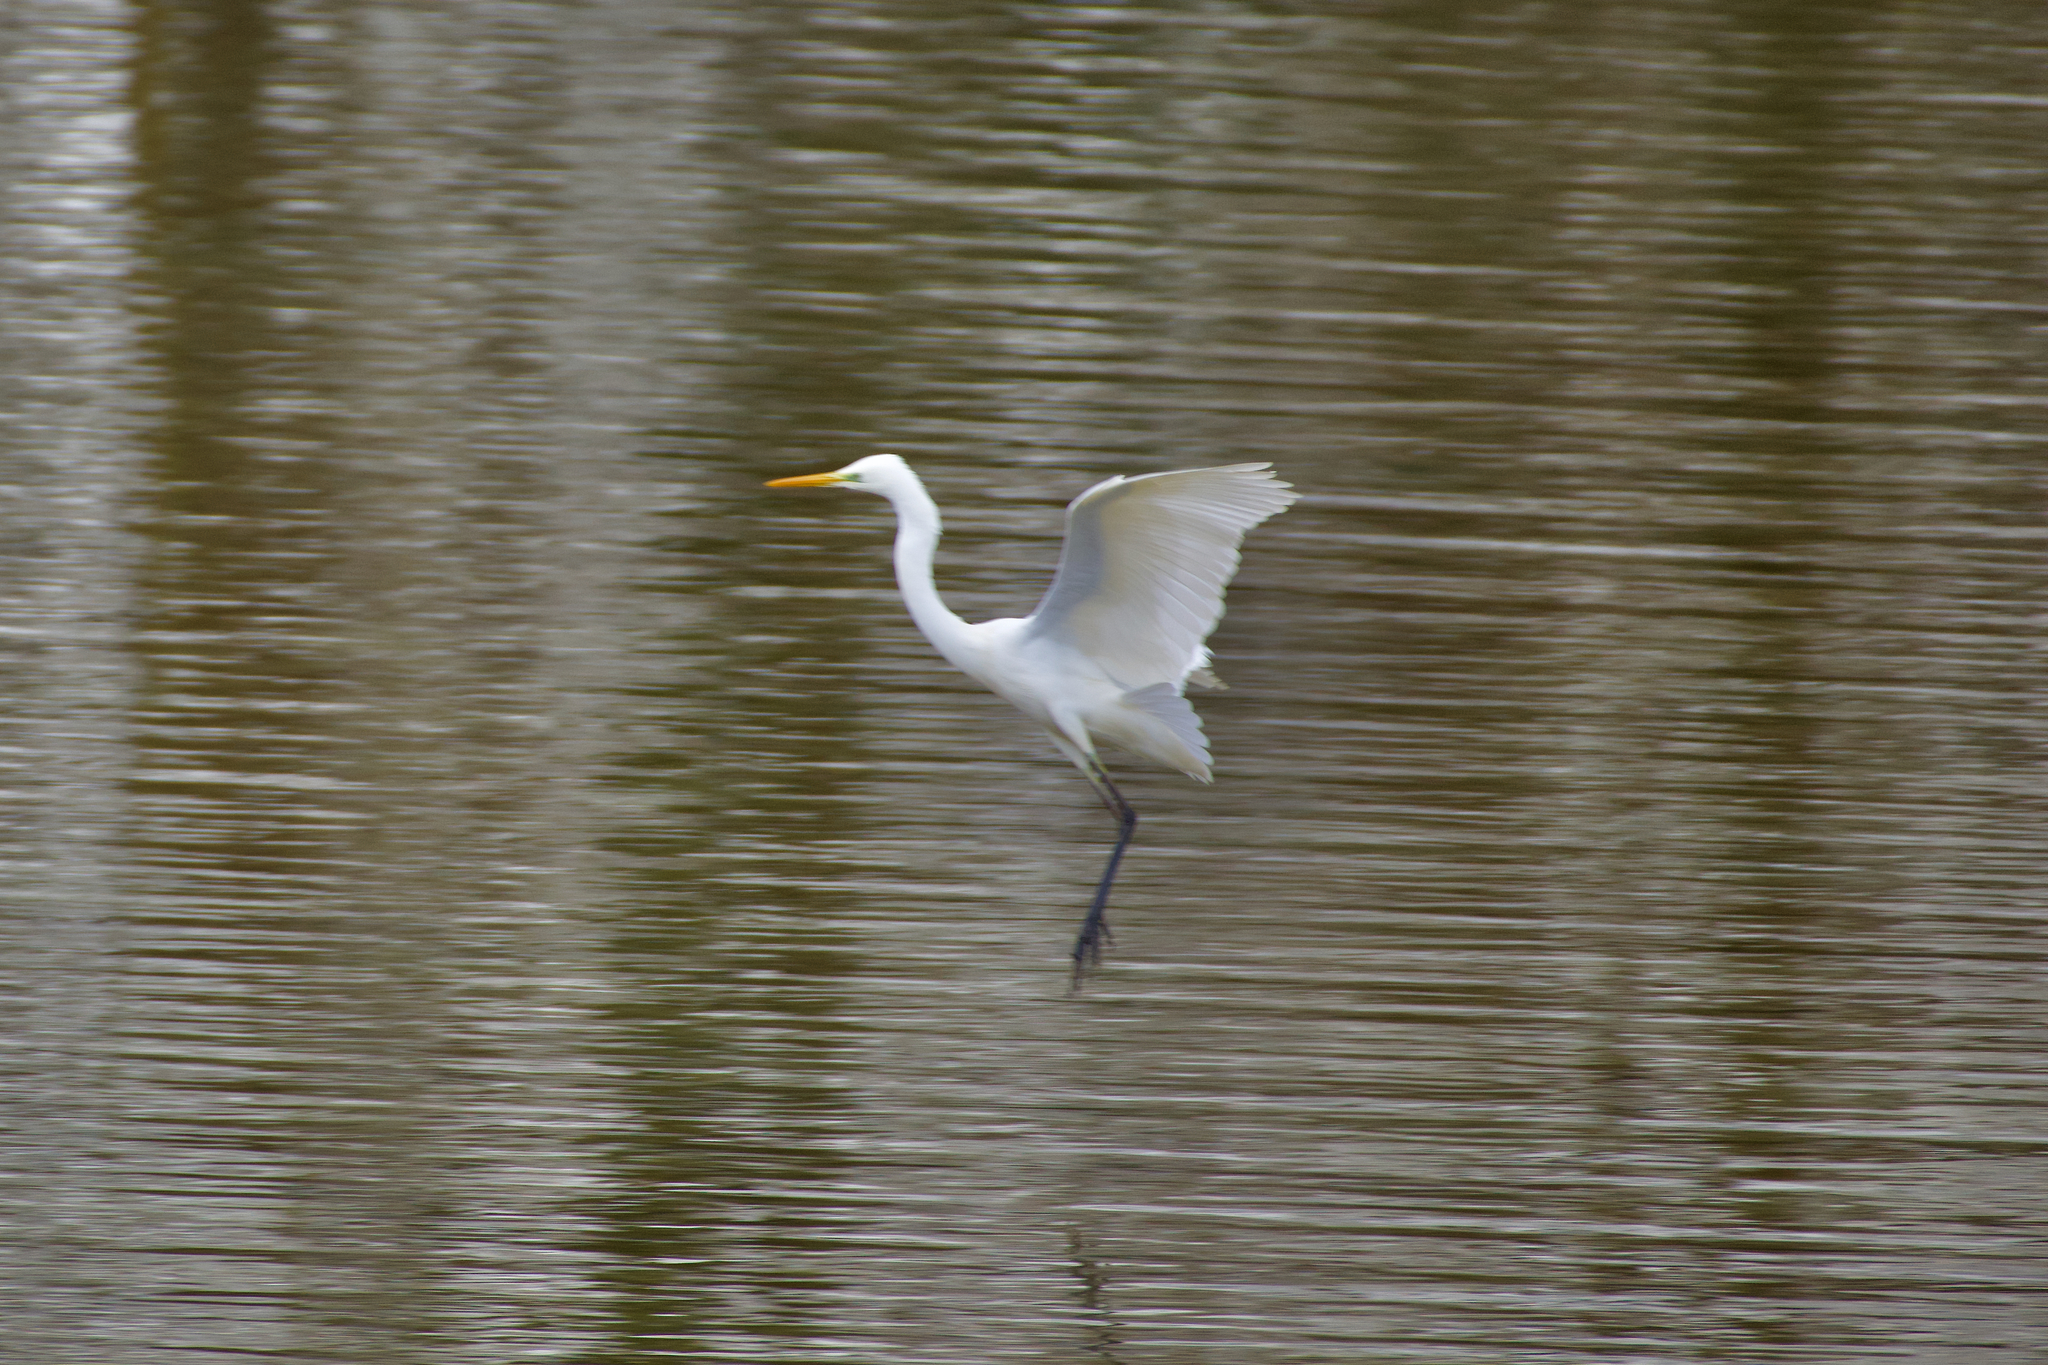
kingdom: Animalia
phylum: Chordata
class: Aves
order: Pelecaniformes
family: Ardeidae
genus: Ardea
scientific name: Ardea alba
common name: Great egret
